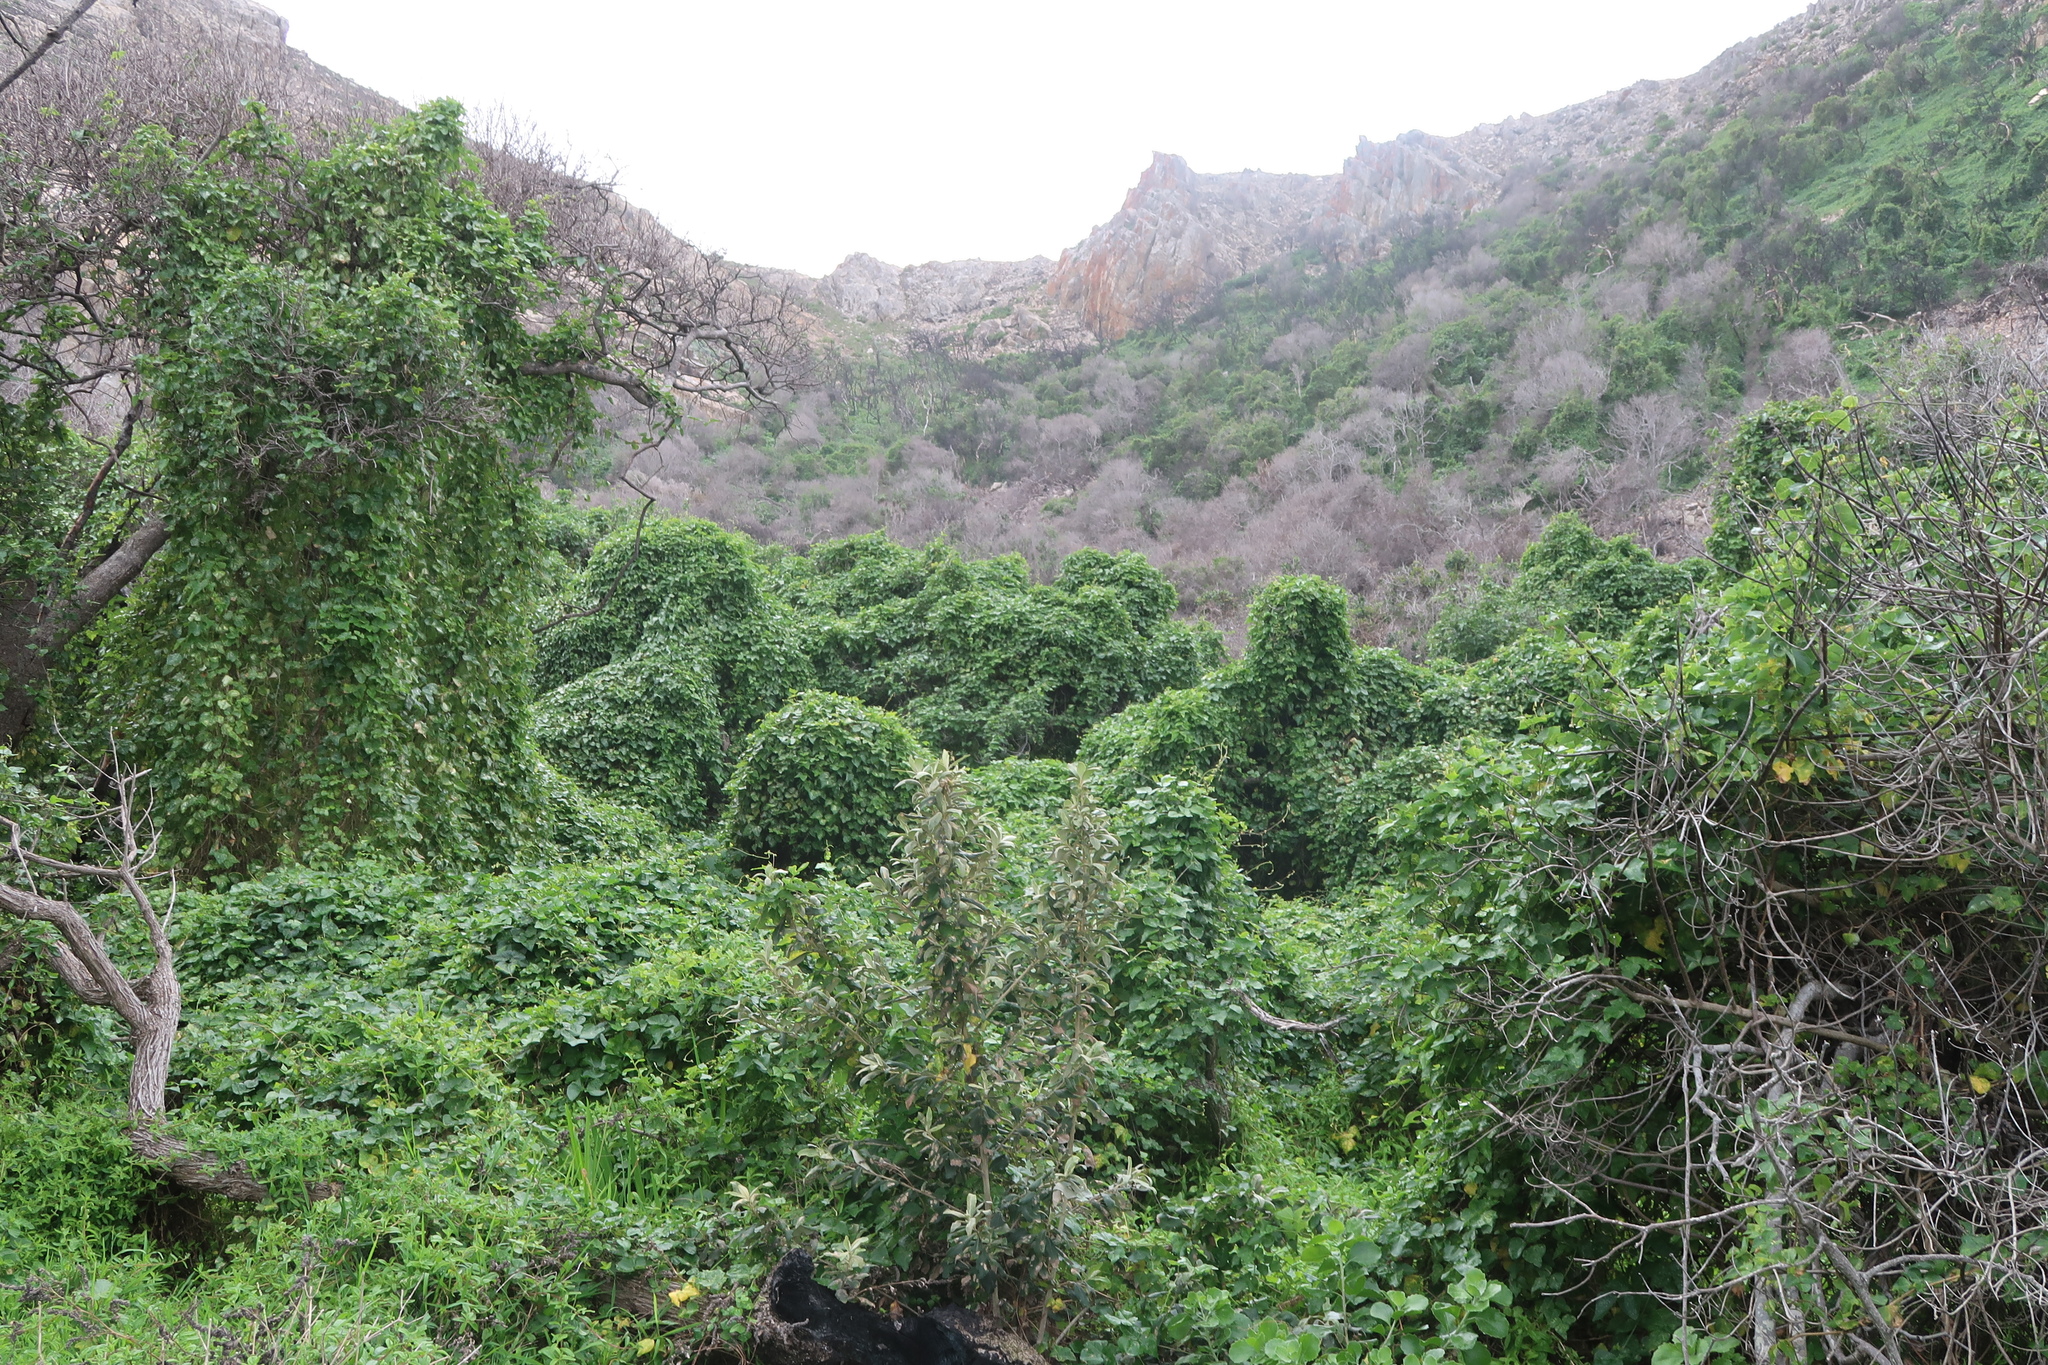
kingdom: Plantae
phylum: Tracheophyta
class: Magnoliopsida
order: Fabales
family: Fabaceae
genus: Dipogon
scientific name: Dipogon lignosus
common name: Okie bean
